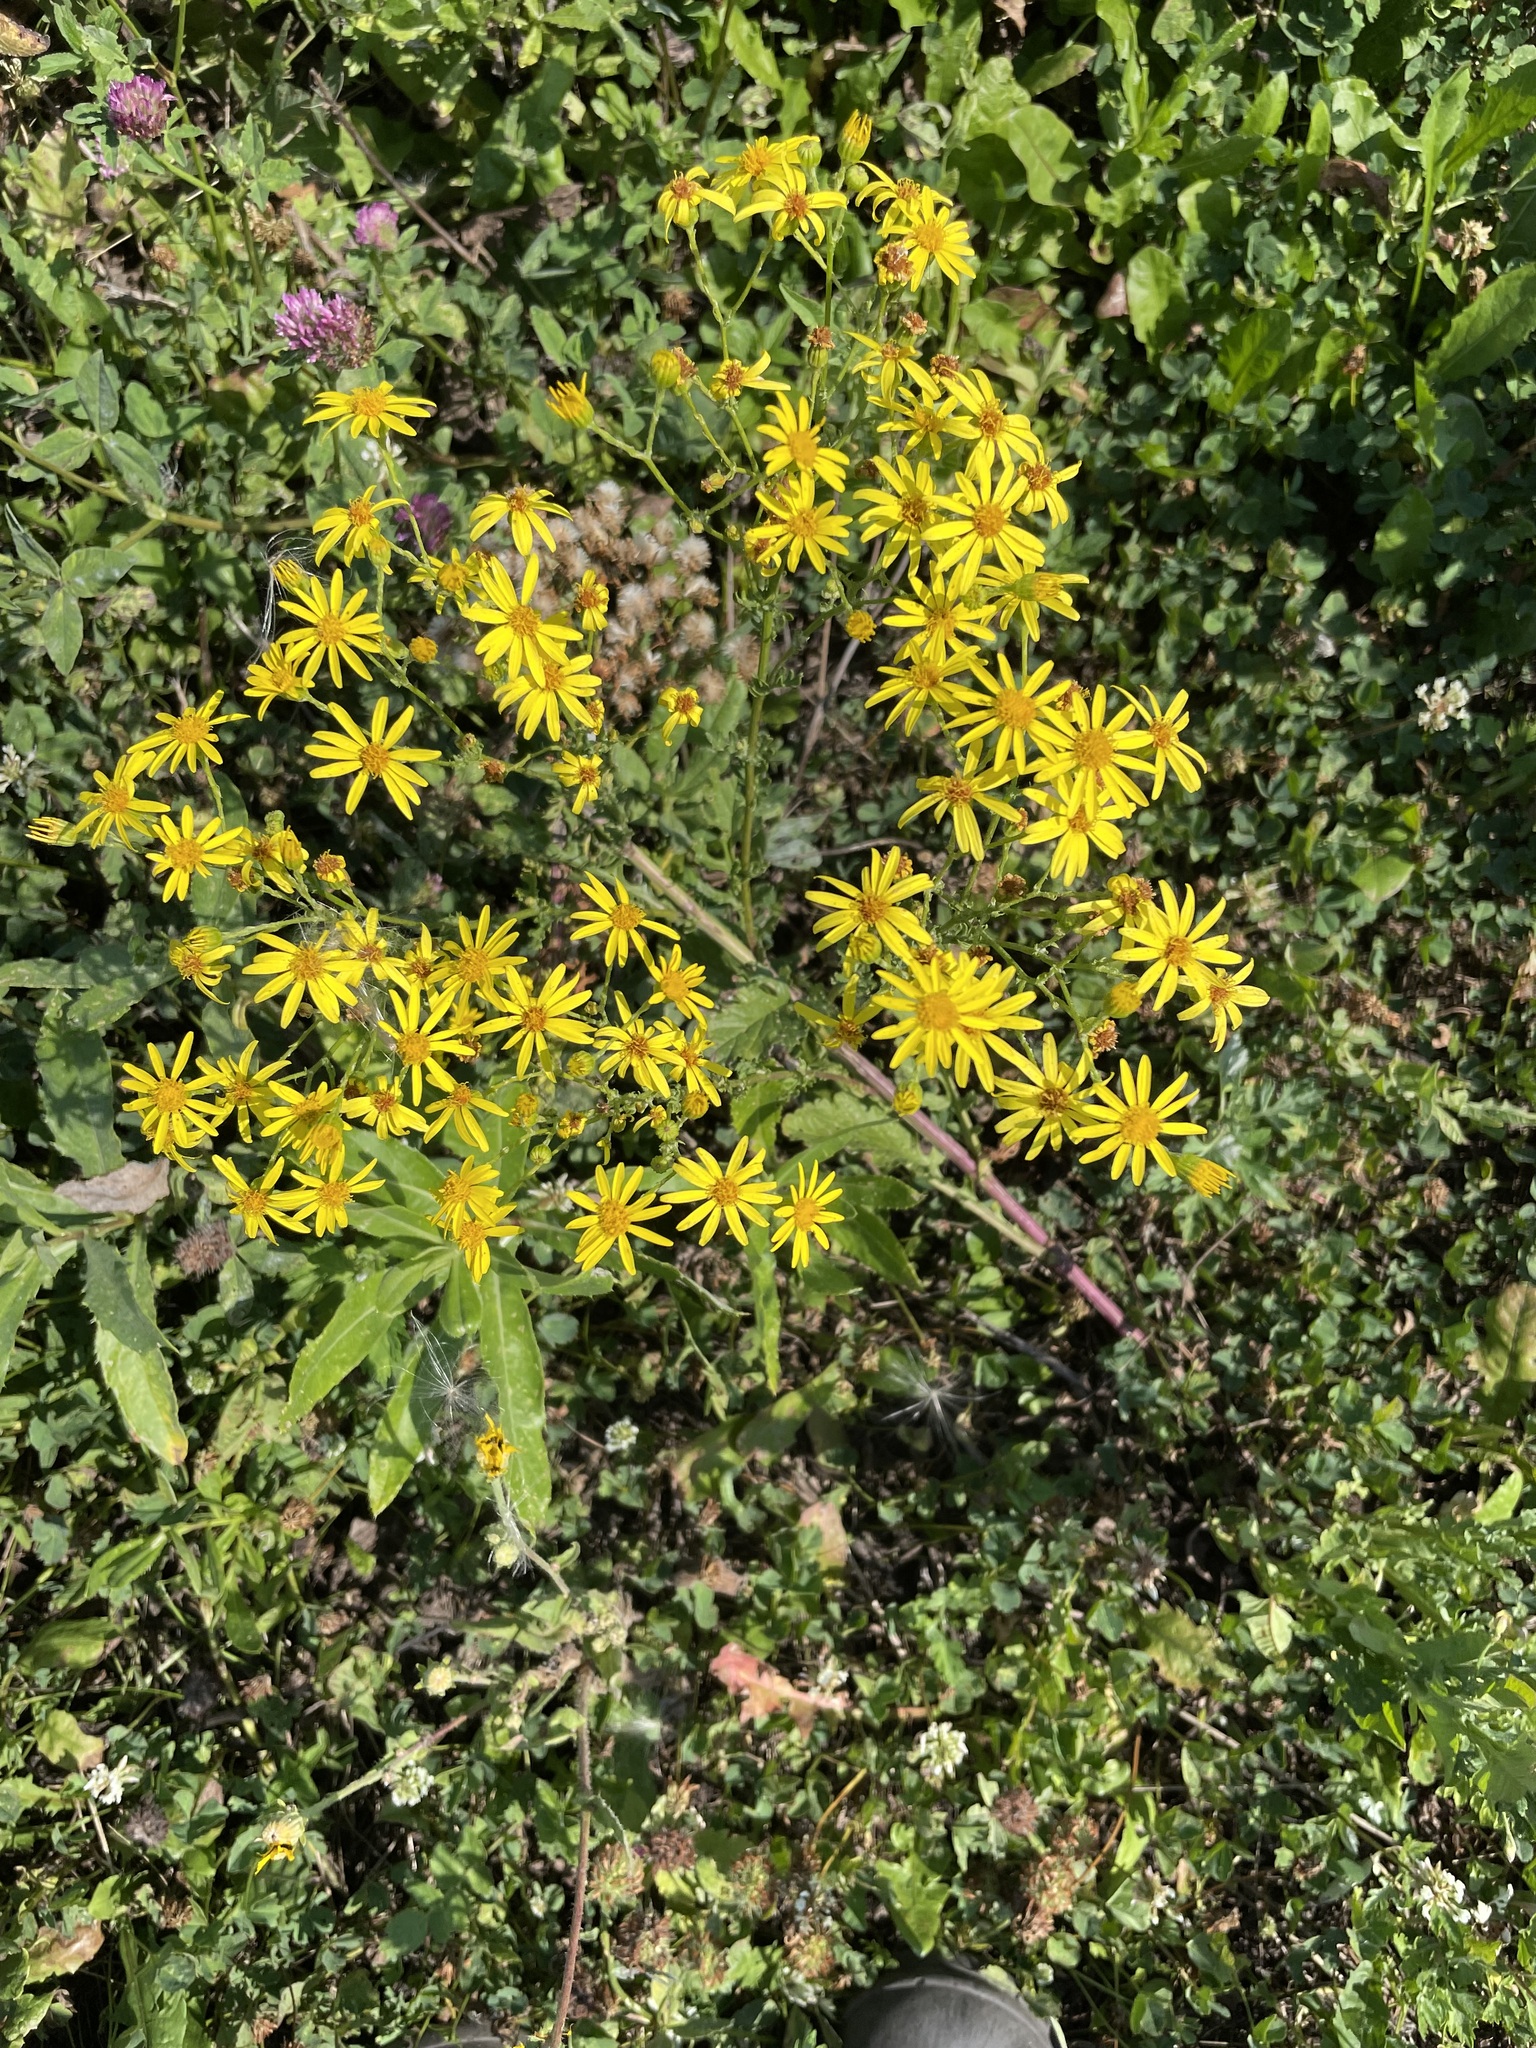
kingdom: Plantae
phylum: Tracheophyta
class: Magnoliopsida
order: Asterales
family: Asteraceae
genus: Jacobaea
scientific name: Jacobaea vulgaris
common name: Stinking willie
